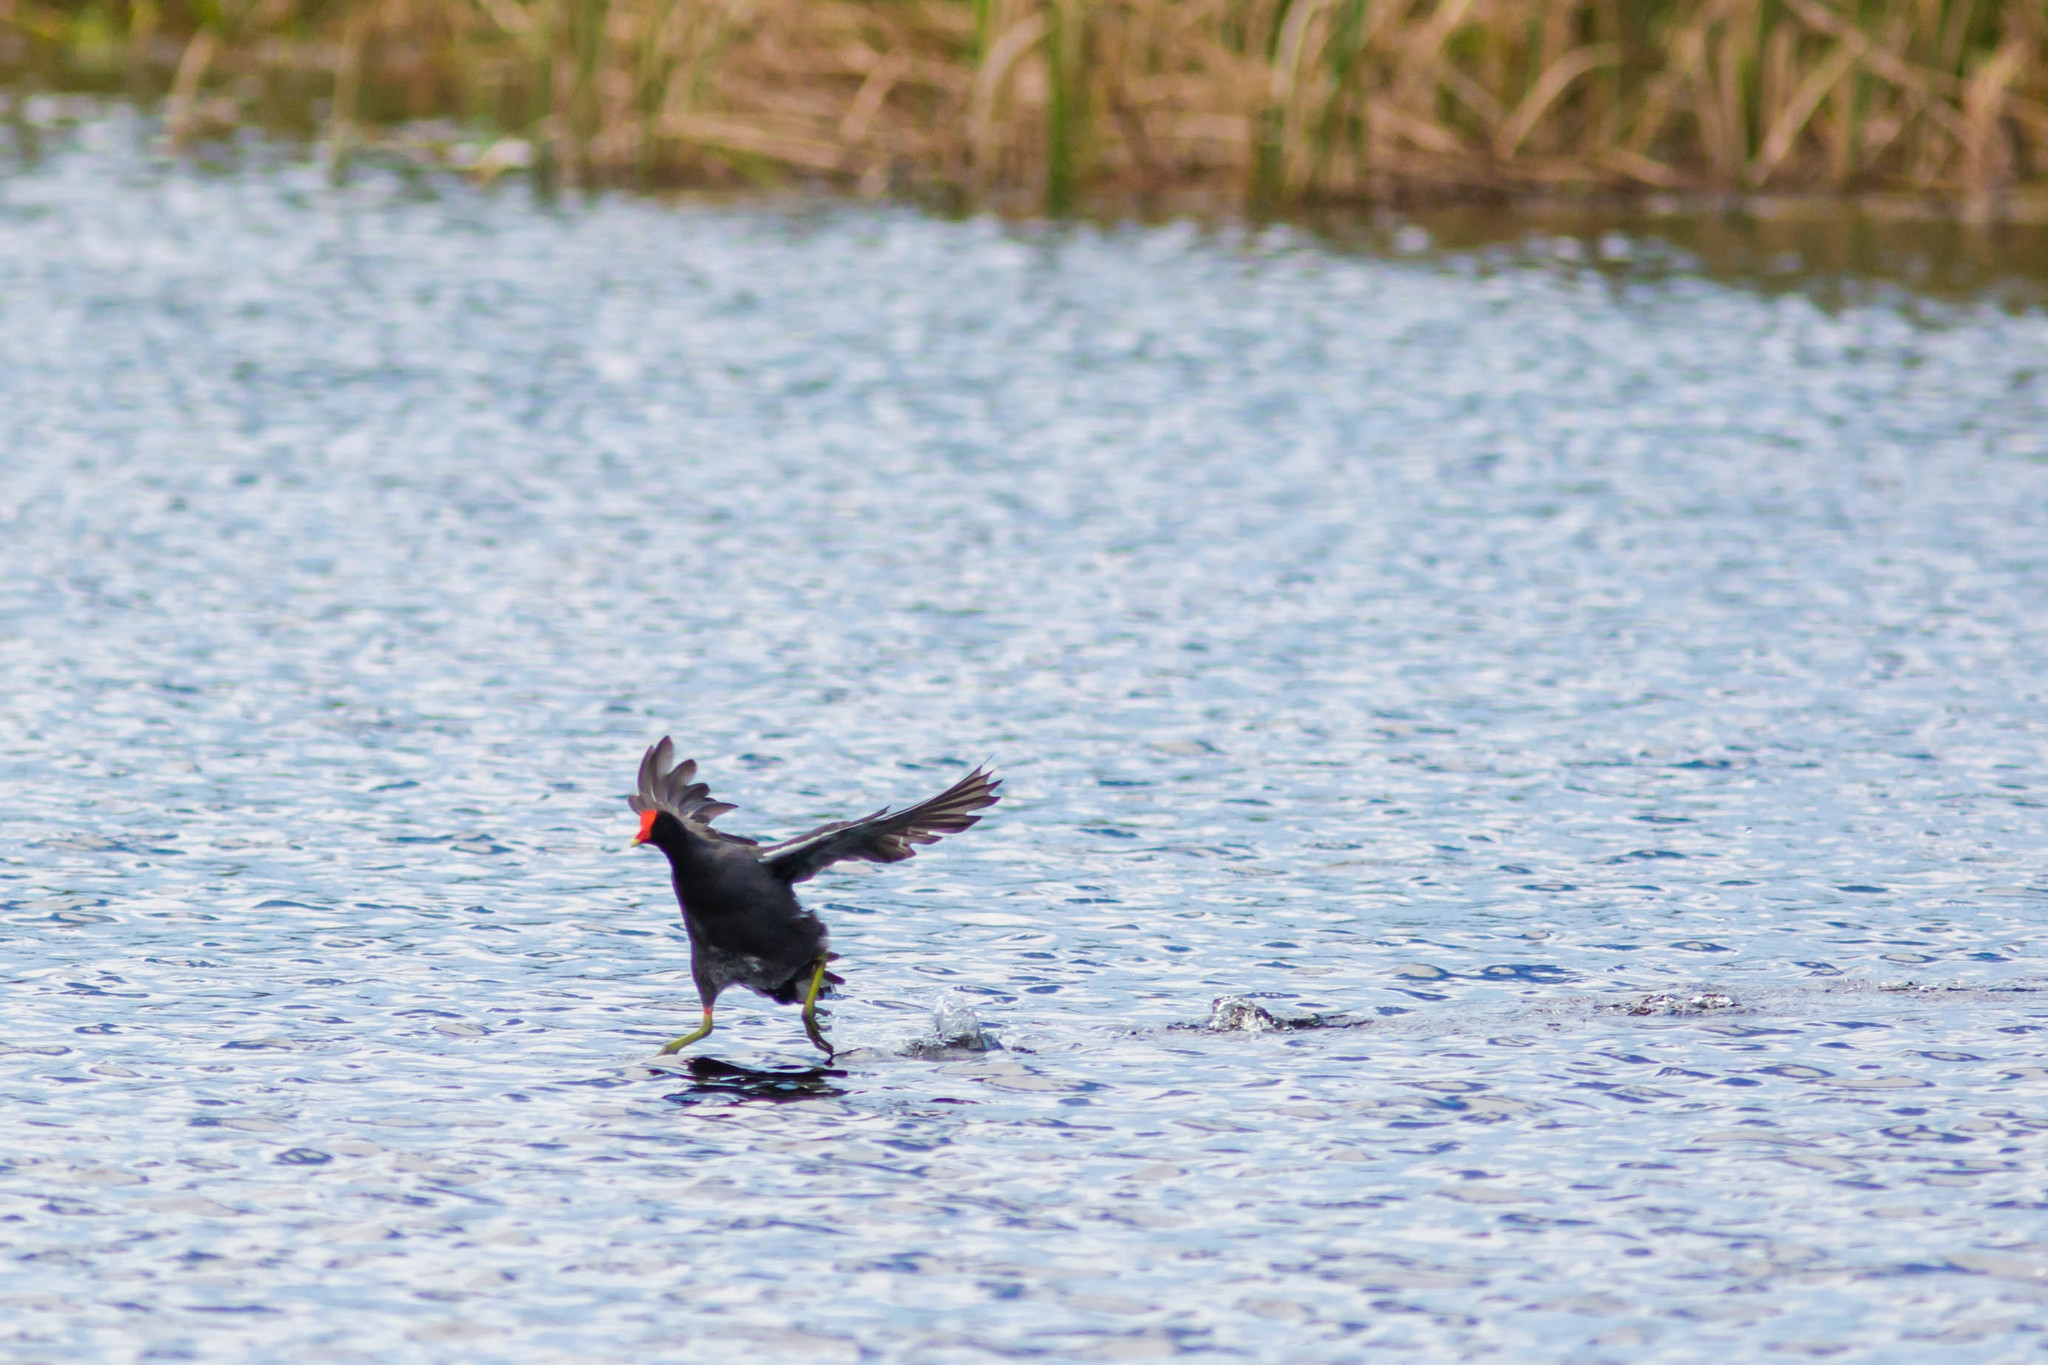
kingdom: Animalia
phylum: Chordata
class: Aves
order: Gruiformes
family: Rallidae
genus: Gallinula
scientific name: Gallinula chloropus
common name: Common moorhen
